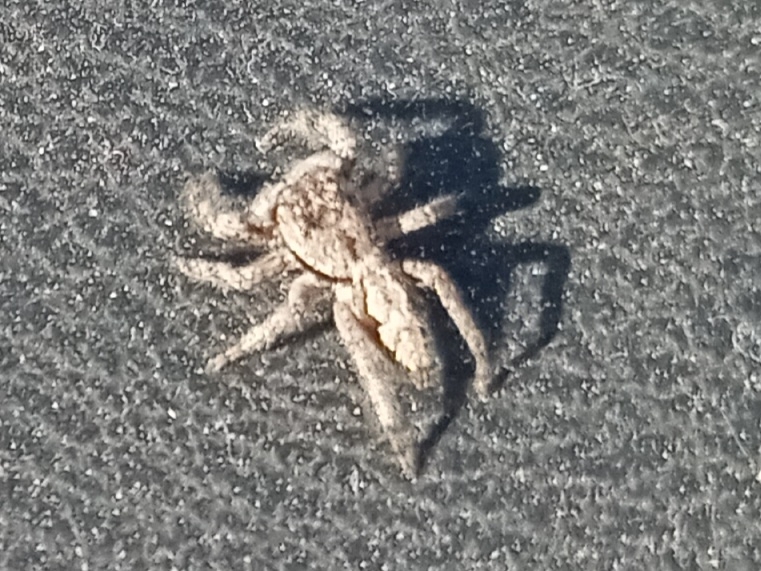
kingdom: Animalia
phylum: Arthropoda
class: Arachnida
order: Araneae
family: Salticidae
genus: Platycryptus
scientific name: Platycryptus undatus
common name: Tan jumping spider
